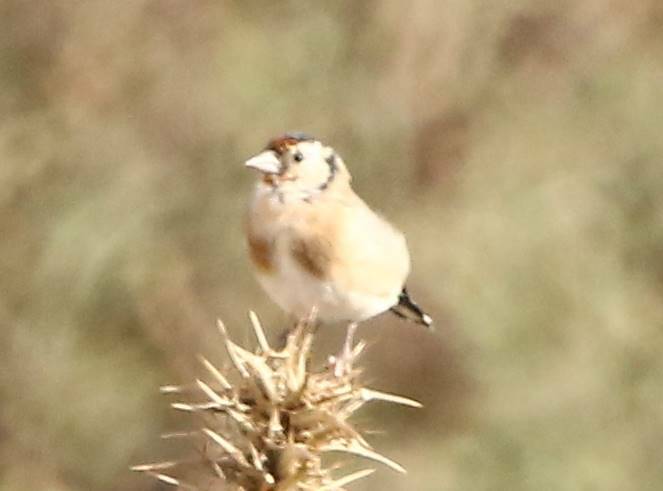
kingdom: Animalia
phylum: Chordata
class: Aves
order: Passeriformes
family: Fringillidae
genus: Carduelis
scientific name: Carduelis carduelis
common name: European goldfinch
